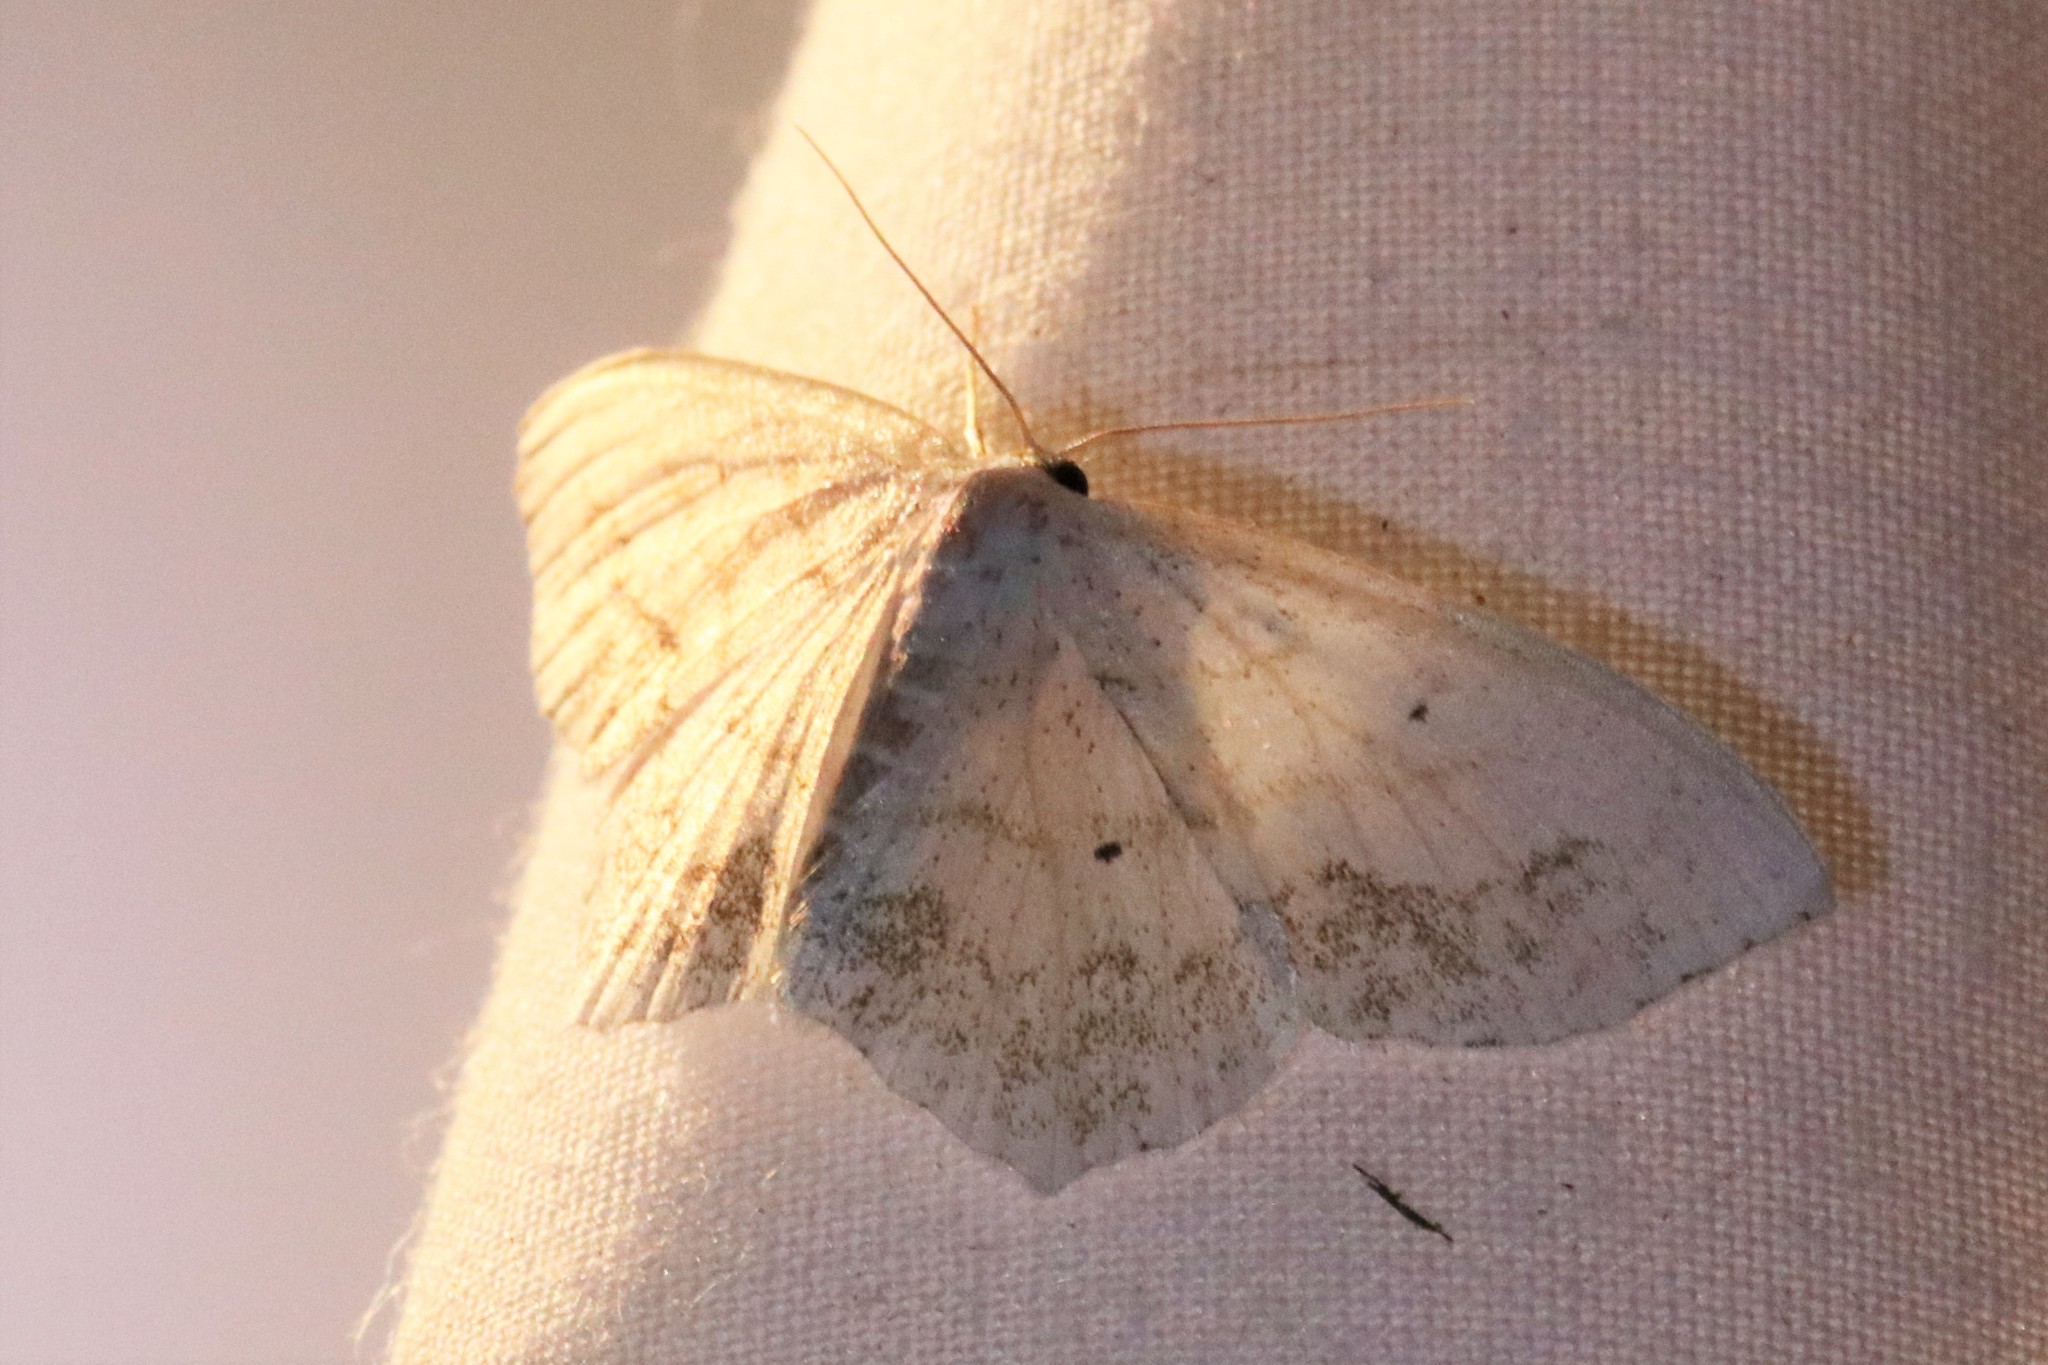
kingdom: Animalia
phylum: Arthropoda
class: Insecta
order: Lepidoptera
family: Geometridae
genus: Scopula
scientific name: Scopula limboundata
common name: Large lace border
